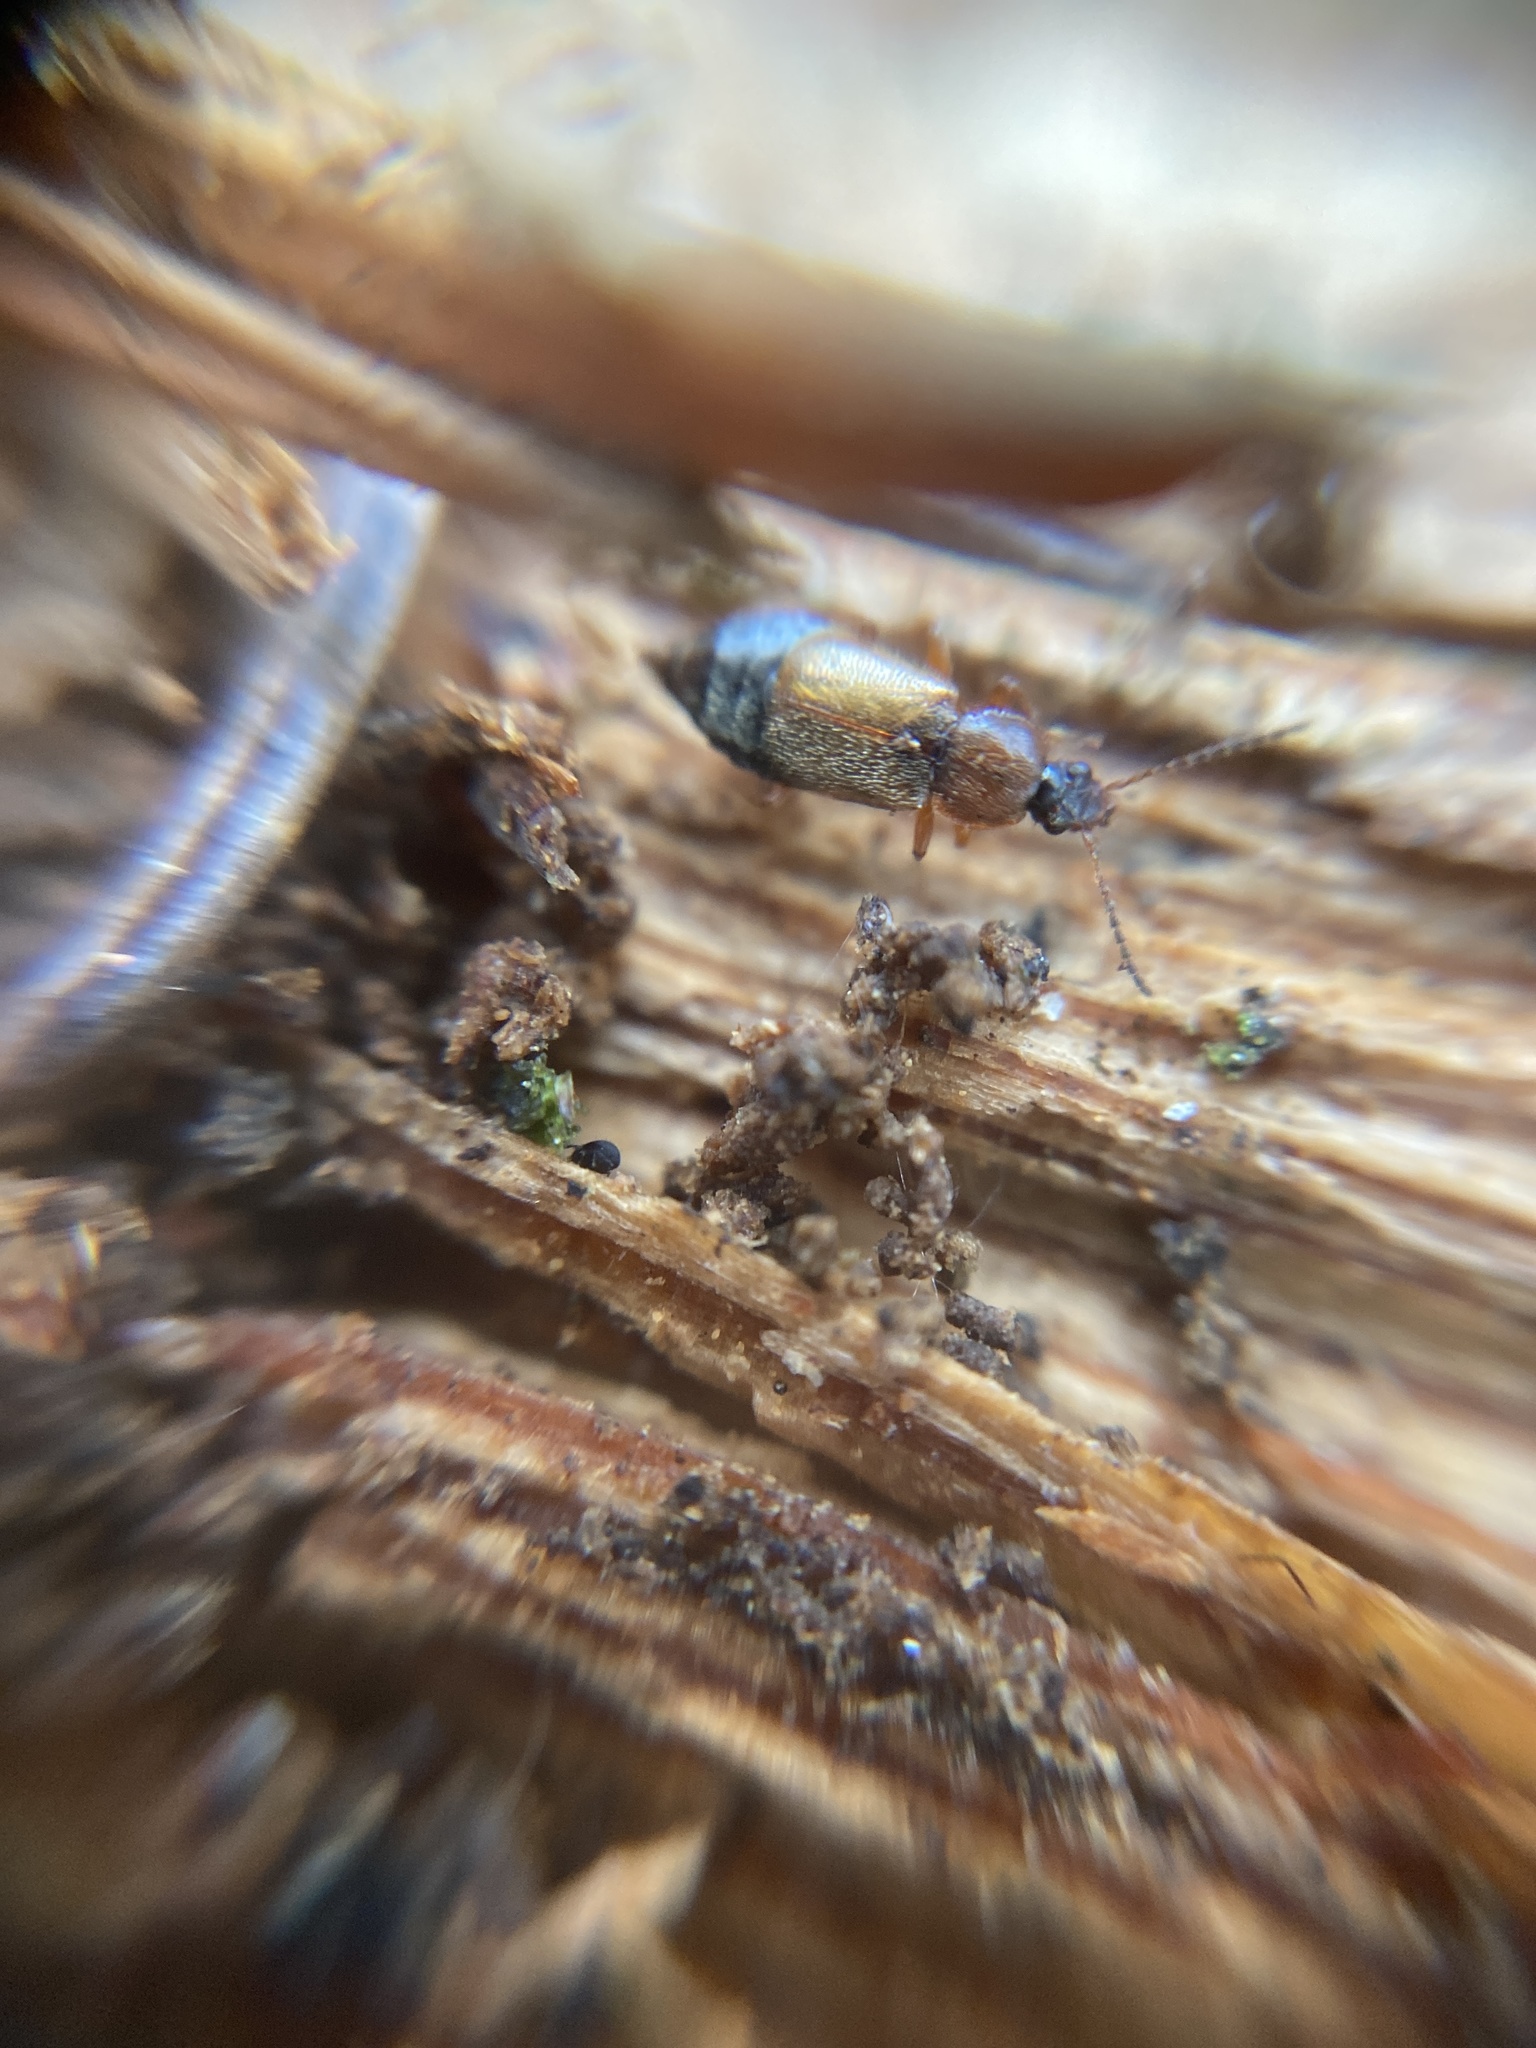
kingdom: Animalia
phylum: Arthropoda
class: Insecta
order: Coleoptera
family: Staphylinidae
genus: Amphichroum
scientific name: Amphichroum canaliculatum
